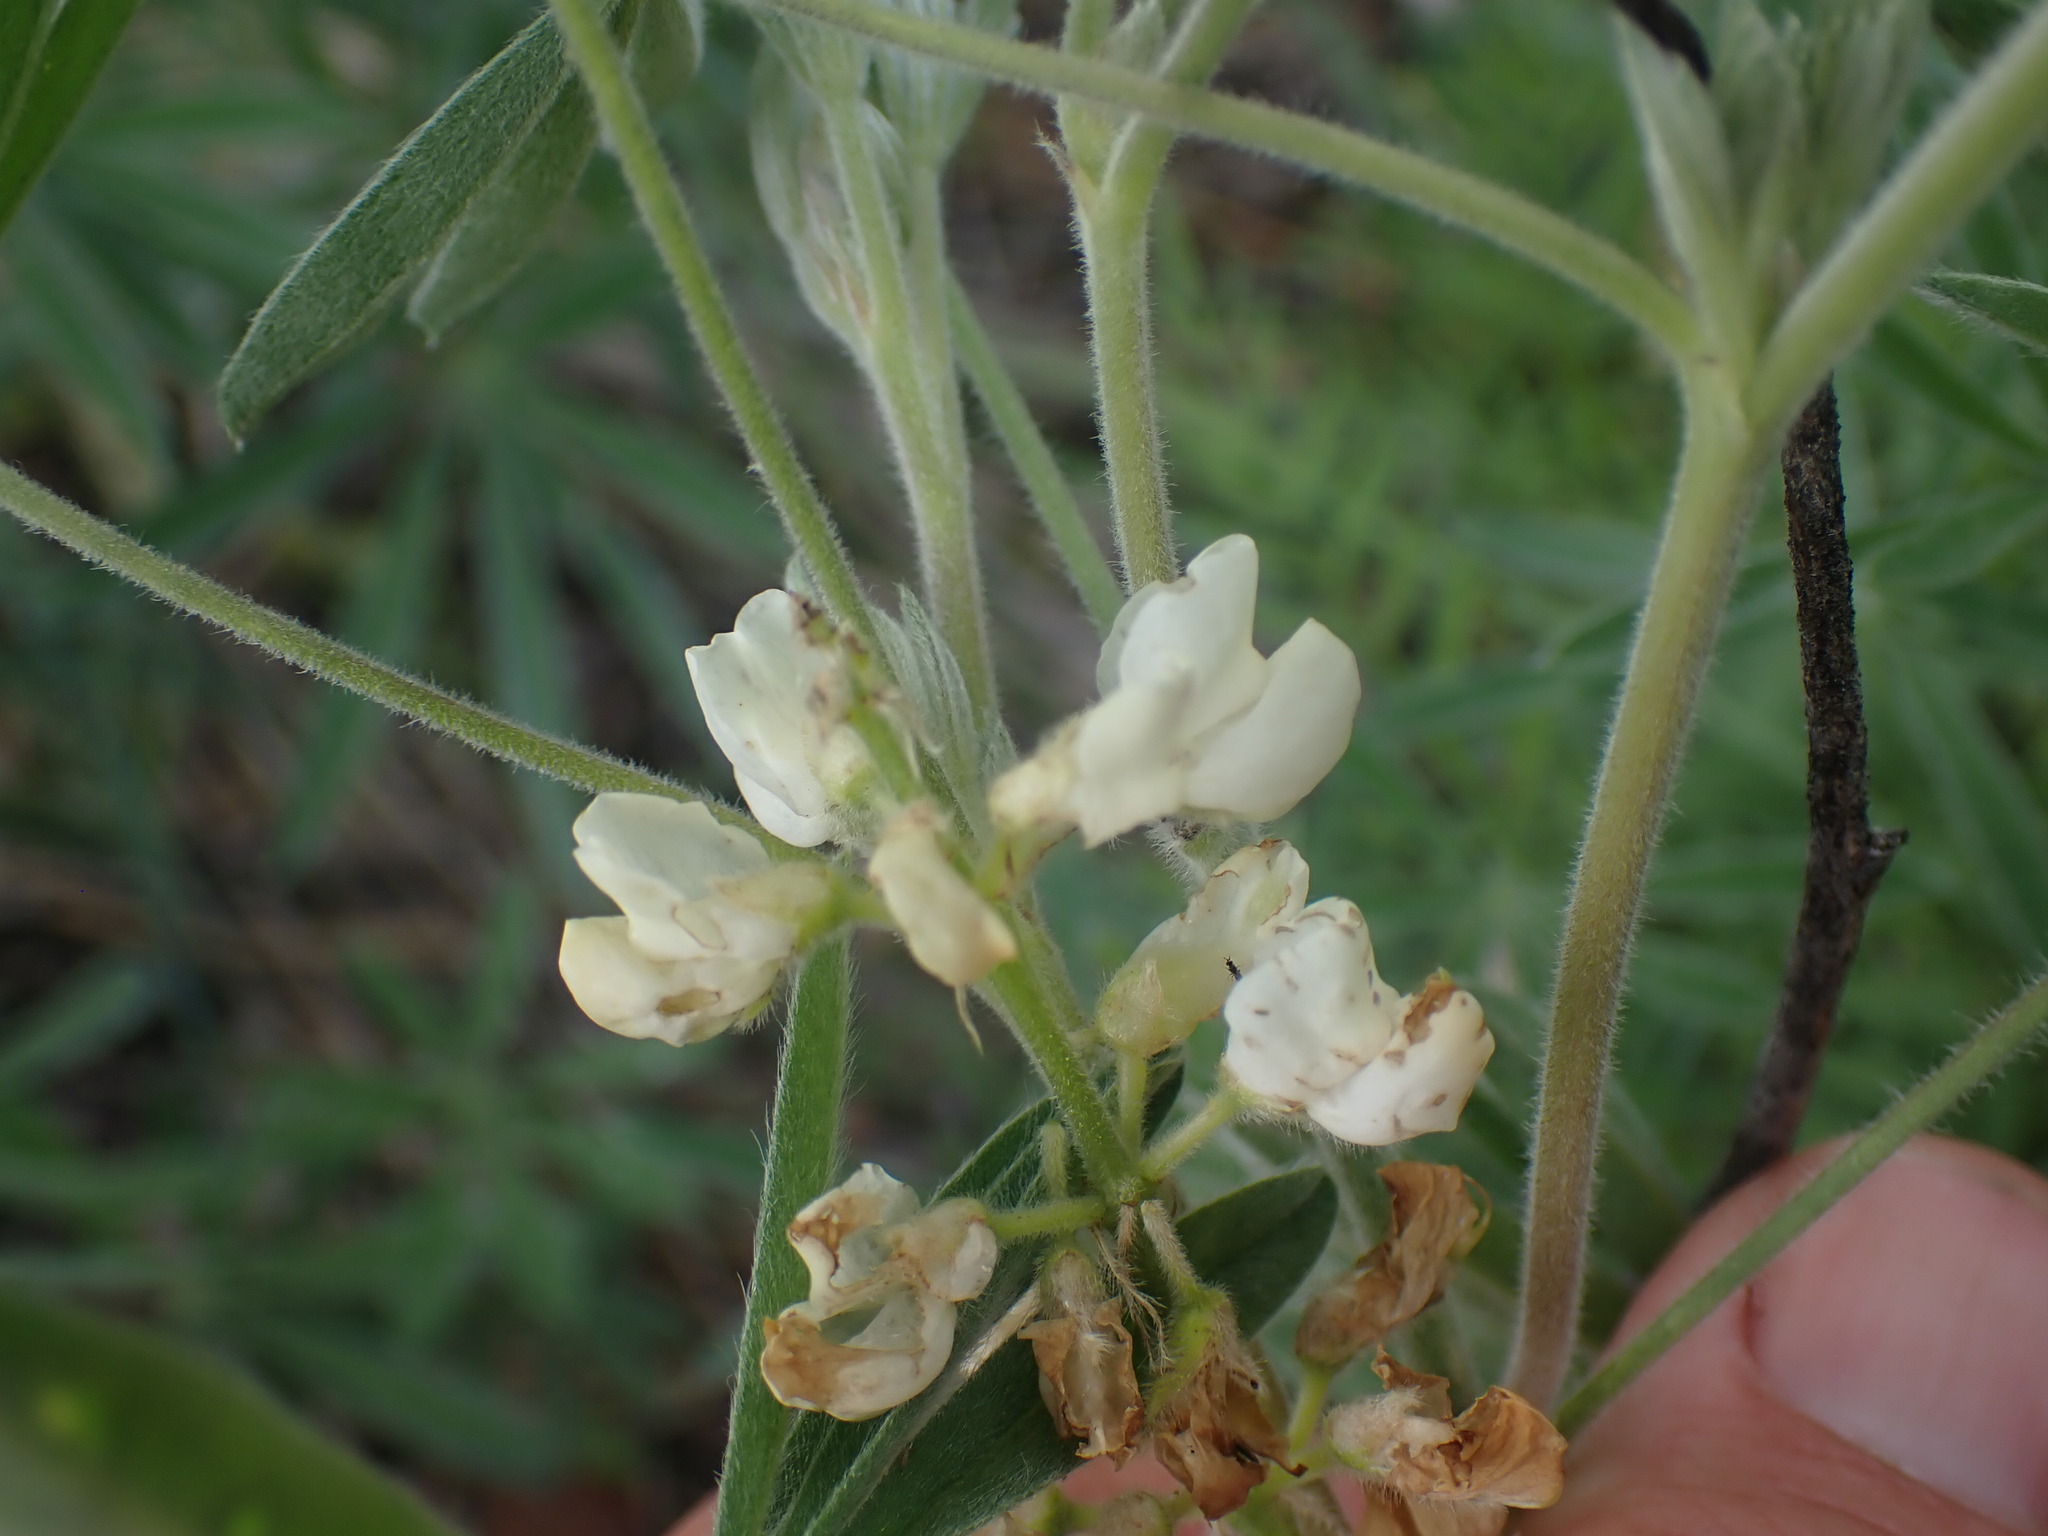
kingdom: Plantae
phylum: Tracheophyta
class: Magnoliopsida
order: Fabales
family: Fabaceae
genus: Lupinus
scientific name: Lupinus sulphureus
